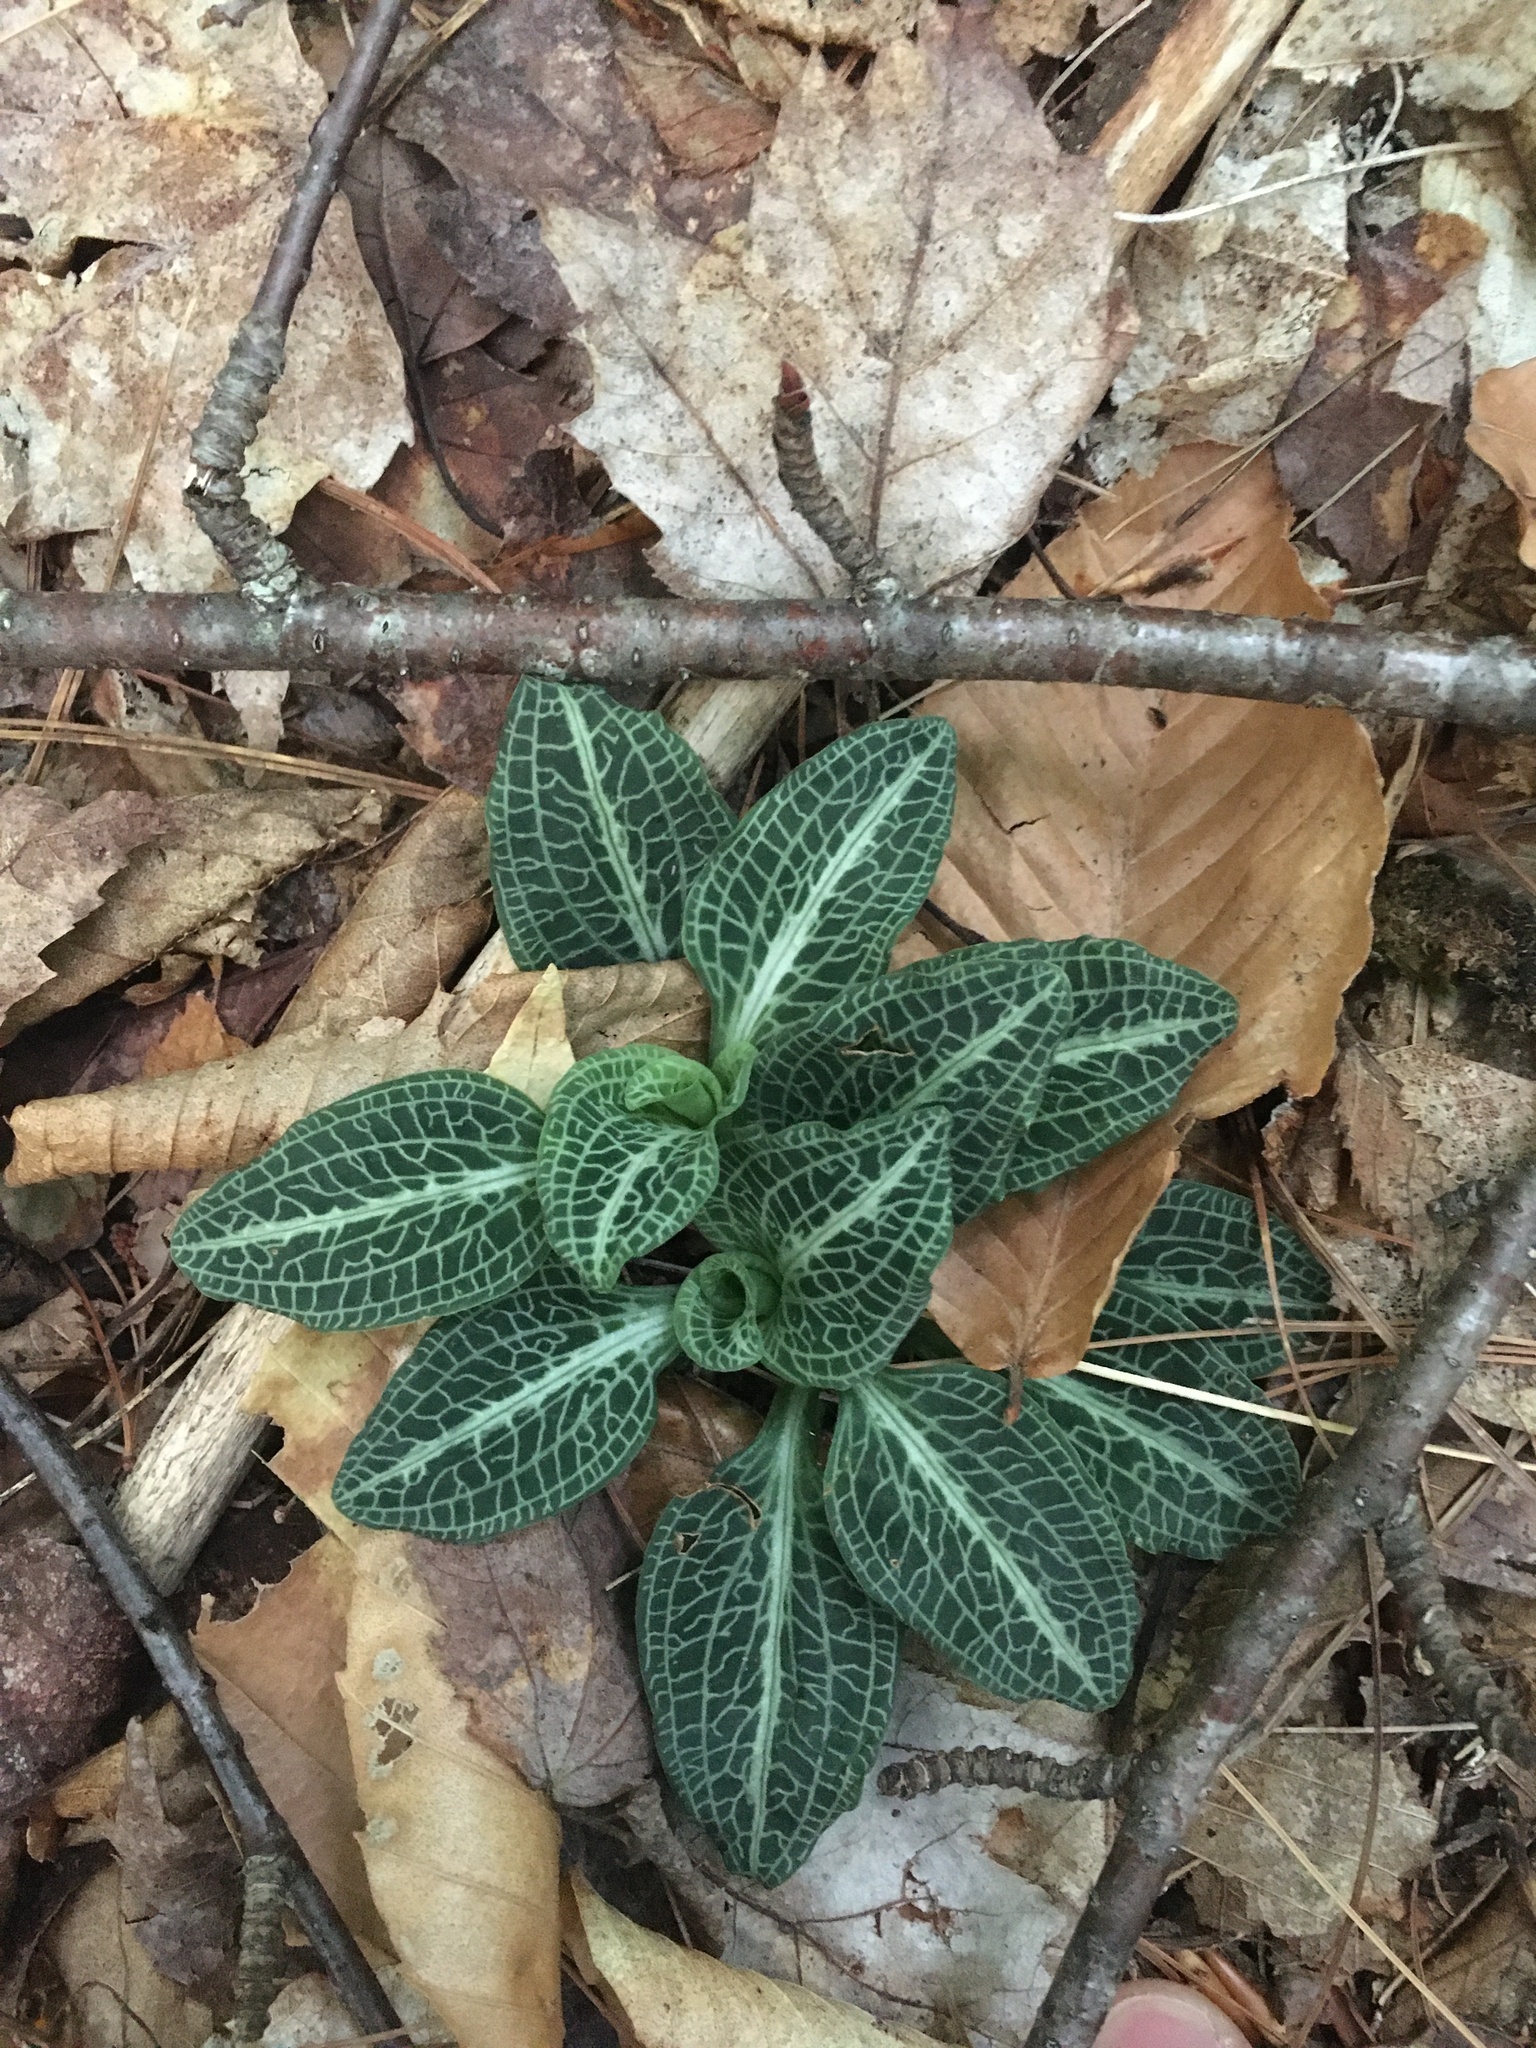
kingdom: Plantae
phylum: Tracheophyta
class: Liliopsida
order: Asparagales
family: Orchidaceae
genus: Goodyera
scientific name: Goodyera pubescens
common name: Downy rattlesnake-plantain
